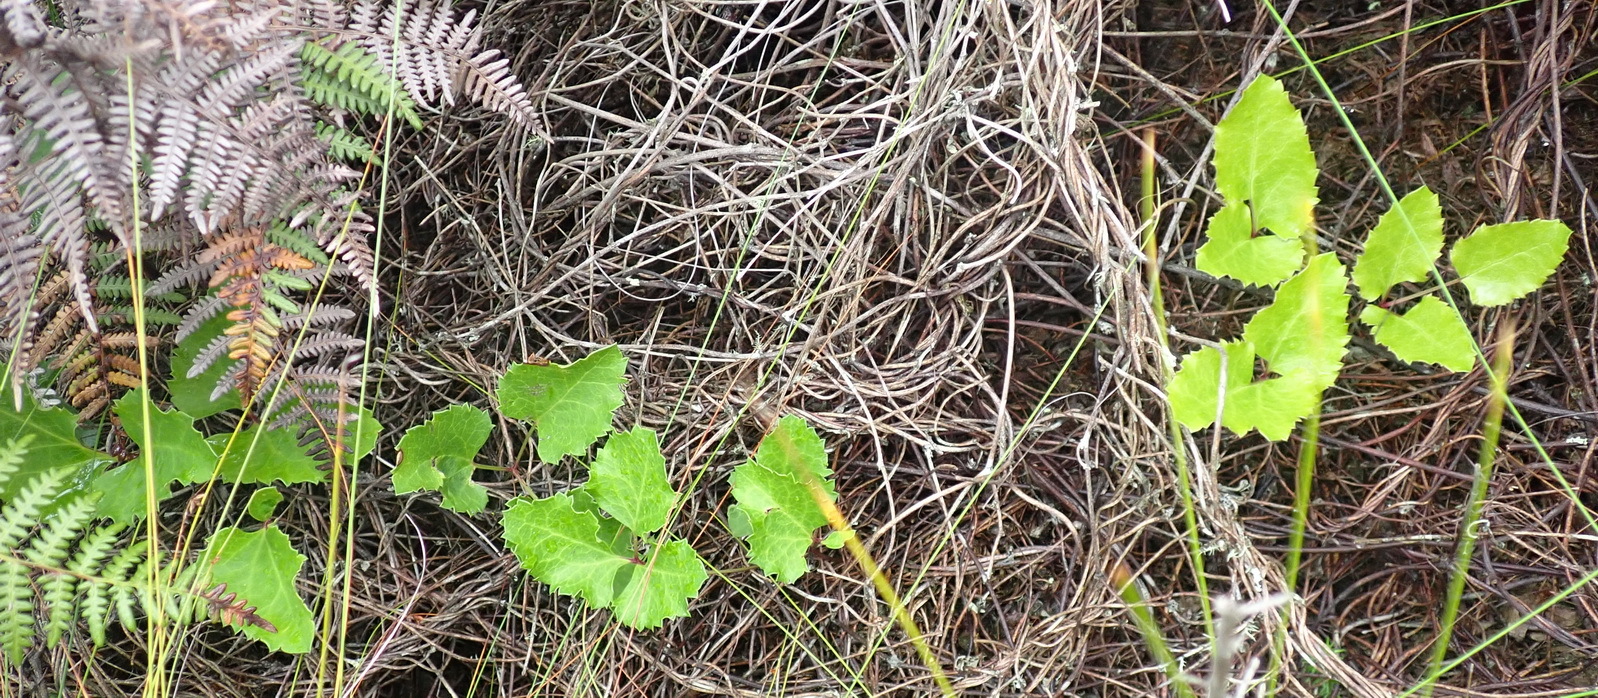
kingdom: Plantae
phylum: Tracheophyta
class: Magnoliopsida
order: Ranunculales
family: Ranunculaceae
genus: Knowltonia
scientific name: Knowltonia vesicatoria
